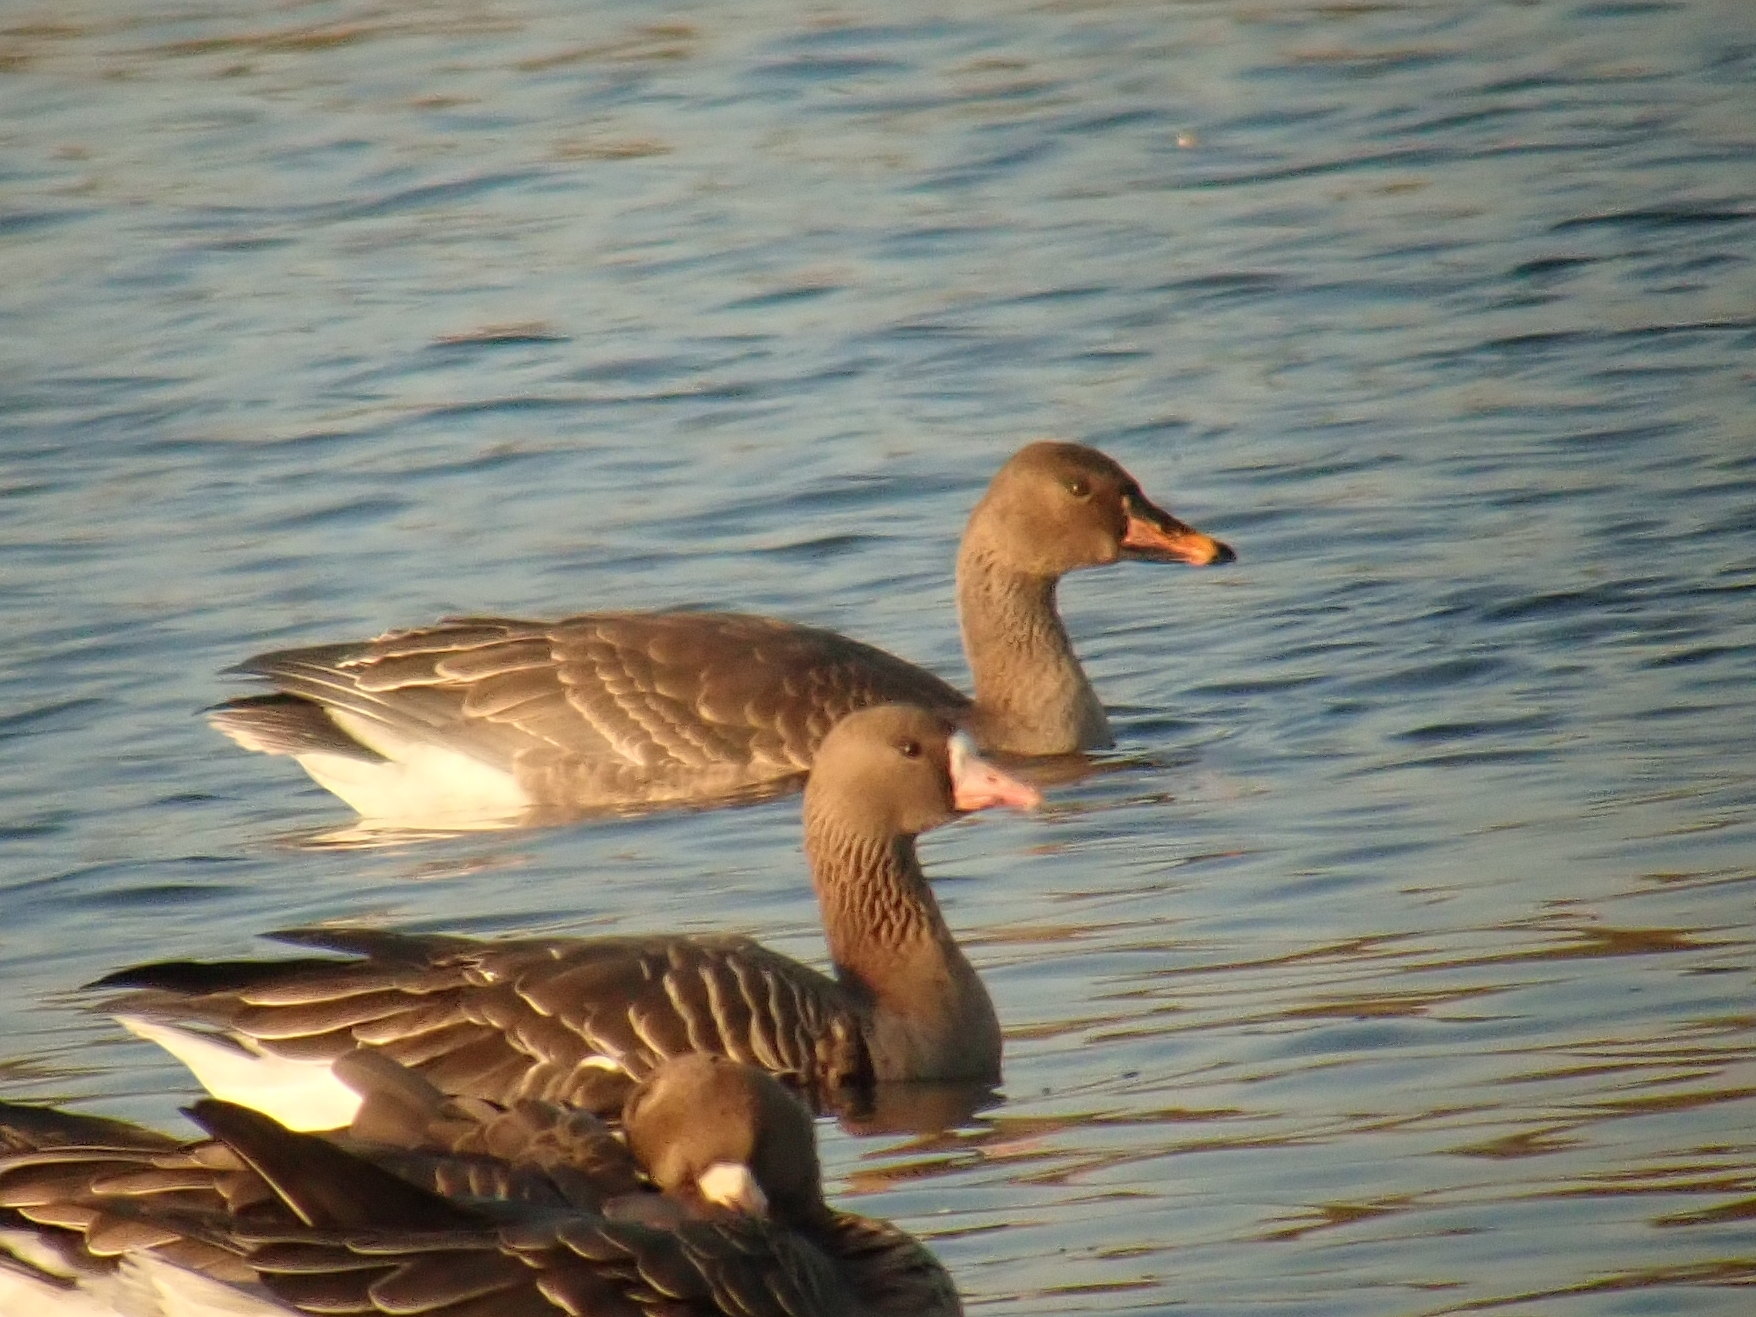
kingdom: Animalia
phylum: Chordata
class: Aves
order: Anseriformes
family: Anatidae
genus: Anser
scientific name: Anser fabalis
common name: Bean goose
